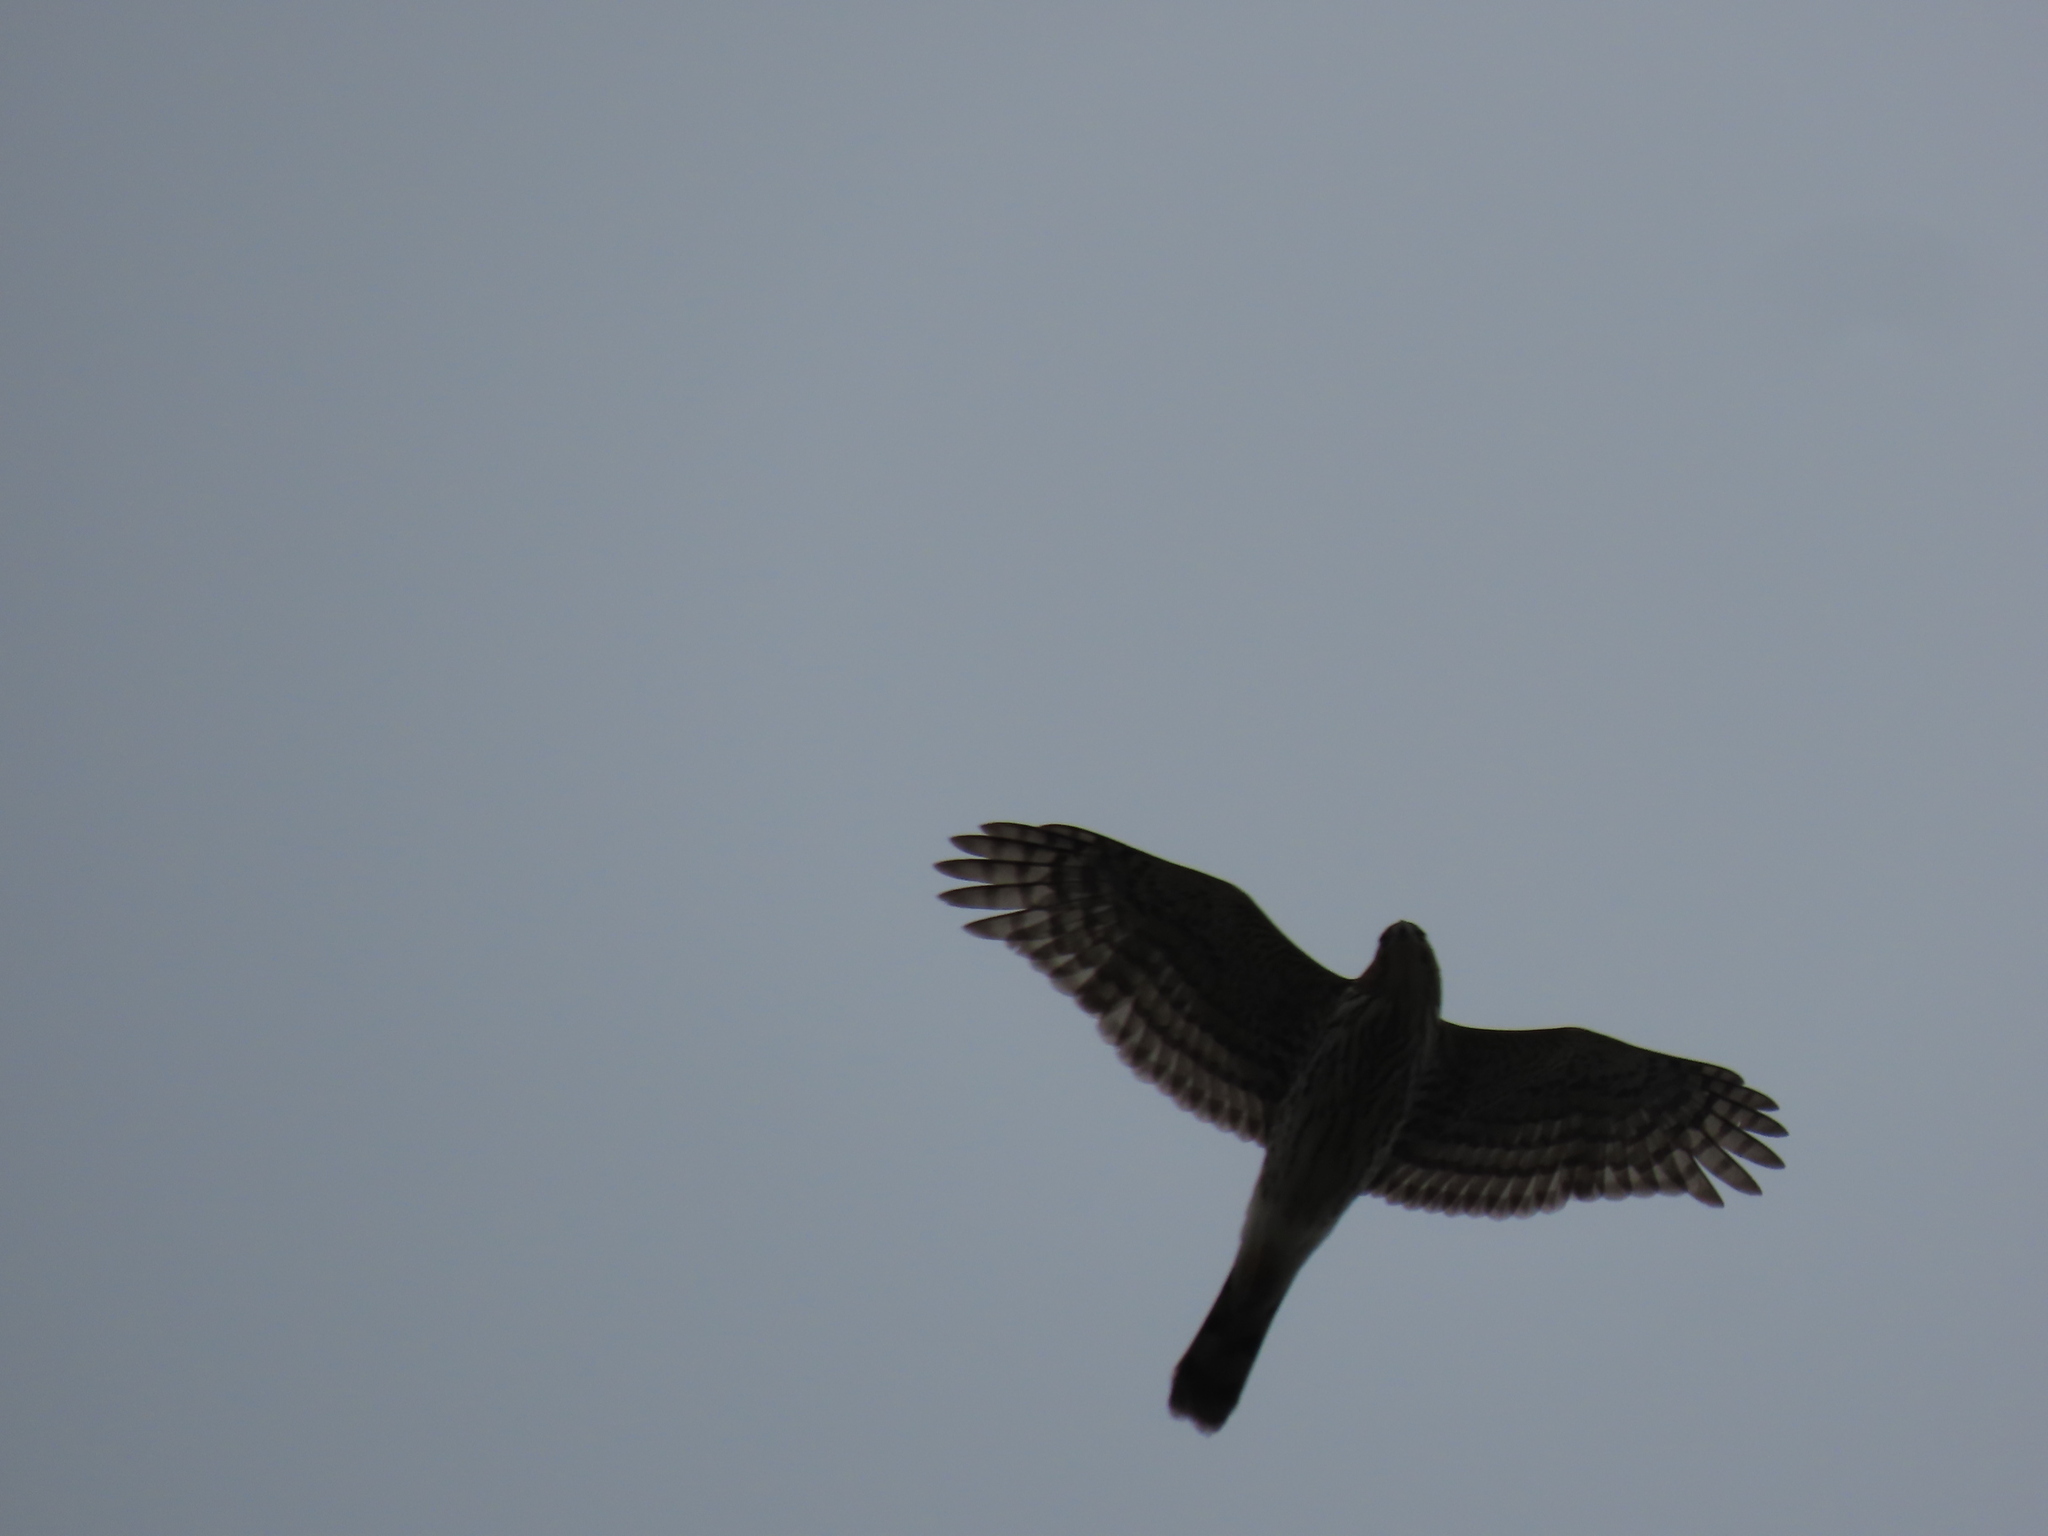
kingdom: Animalia
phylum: Chordata
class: Aves
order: Accipitriformes
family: Accipitridae
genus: Accipiter
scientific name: Accipiter cooperii
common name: Cooper's hawk
